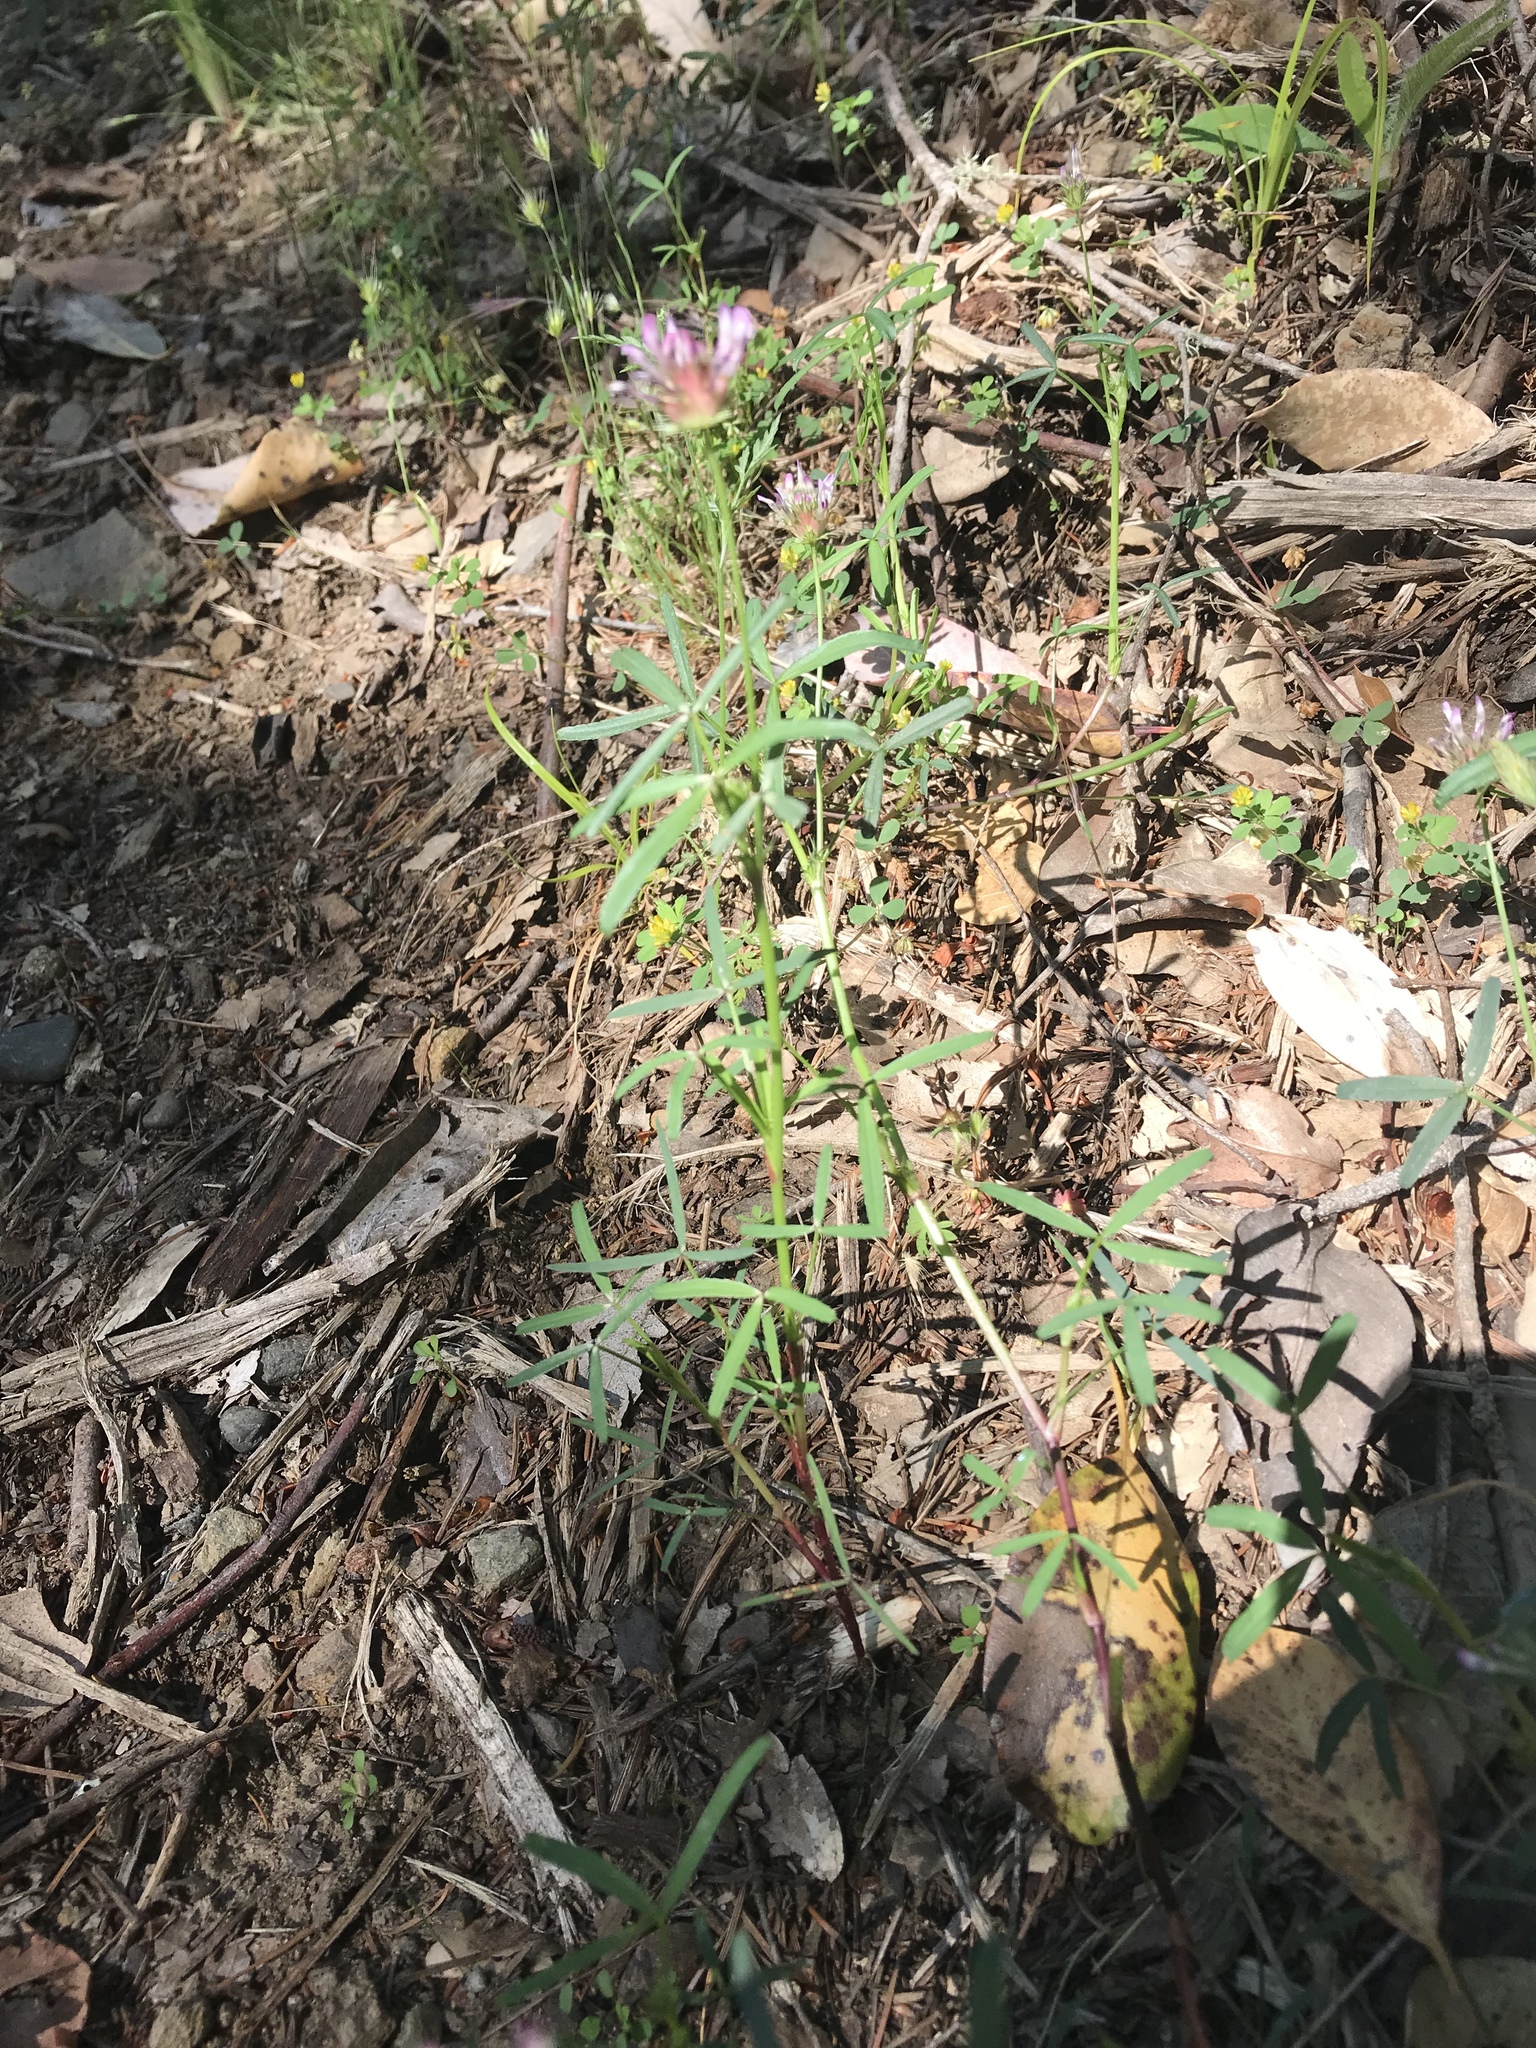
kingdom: Plantae
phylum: Tracheophyta
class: Magnoliopsida
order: Fabales
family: Fabaceae
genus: Trifolium
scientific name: Trifolium willdenovii
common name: Tomcat clover
